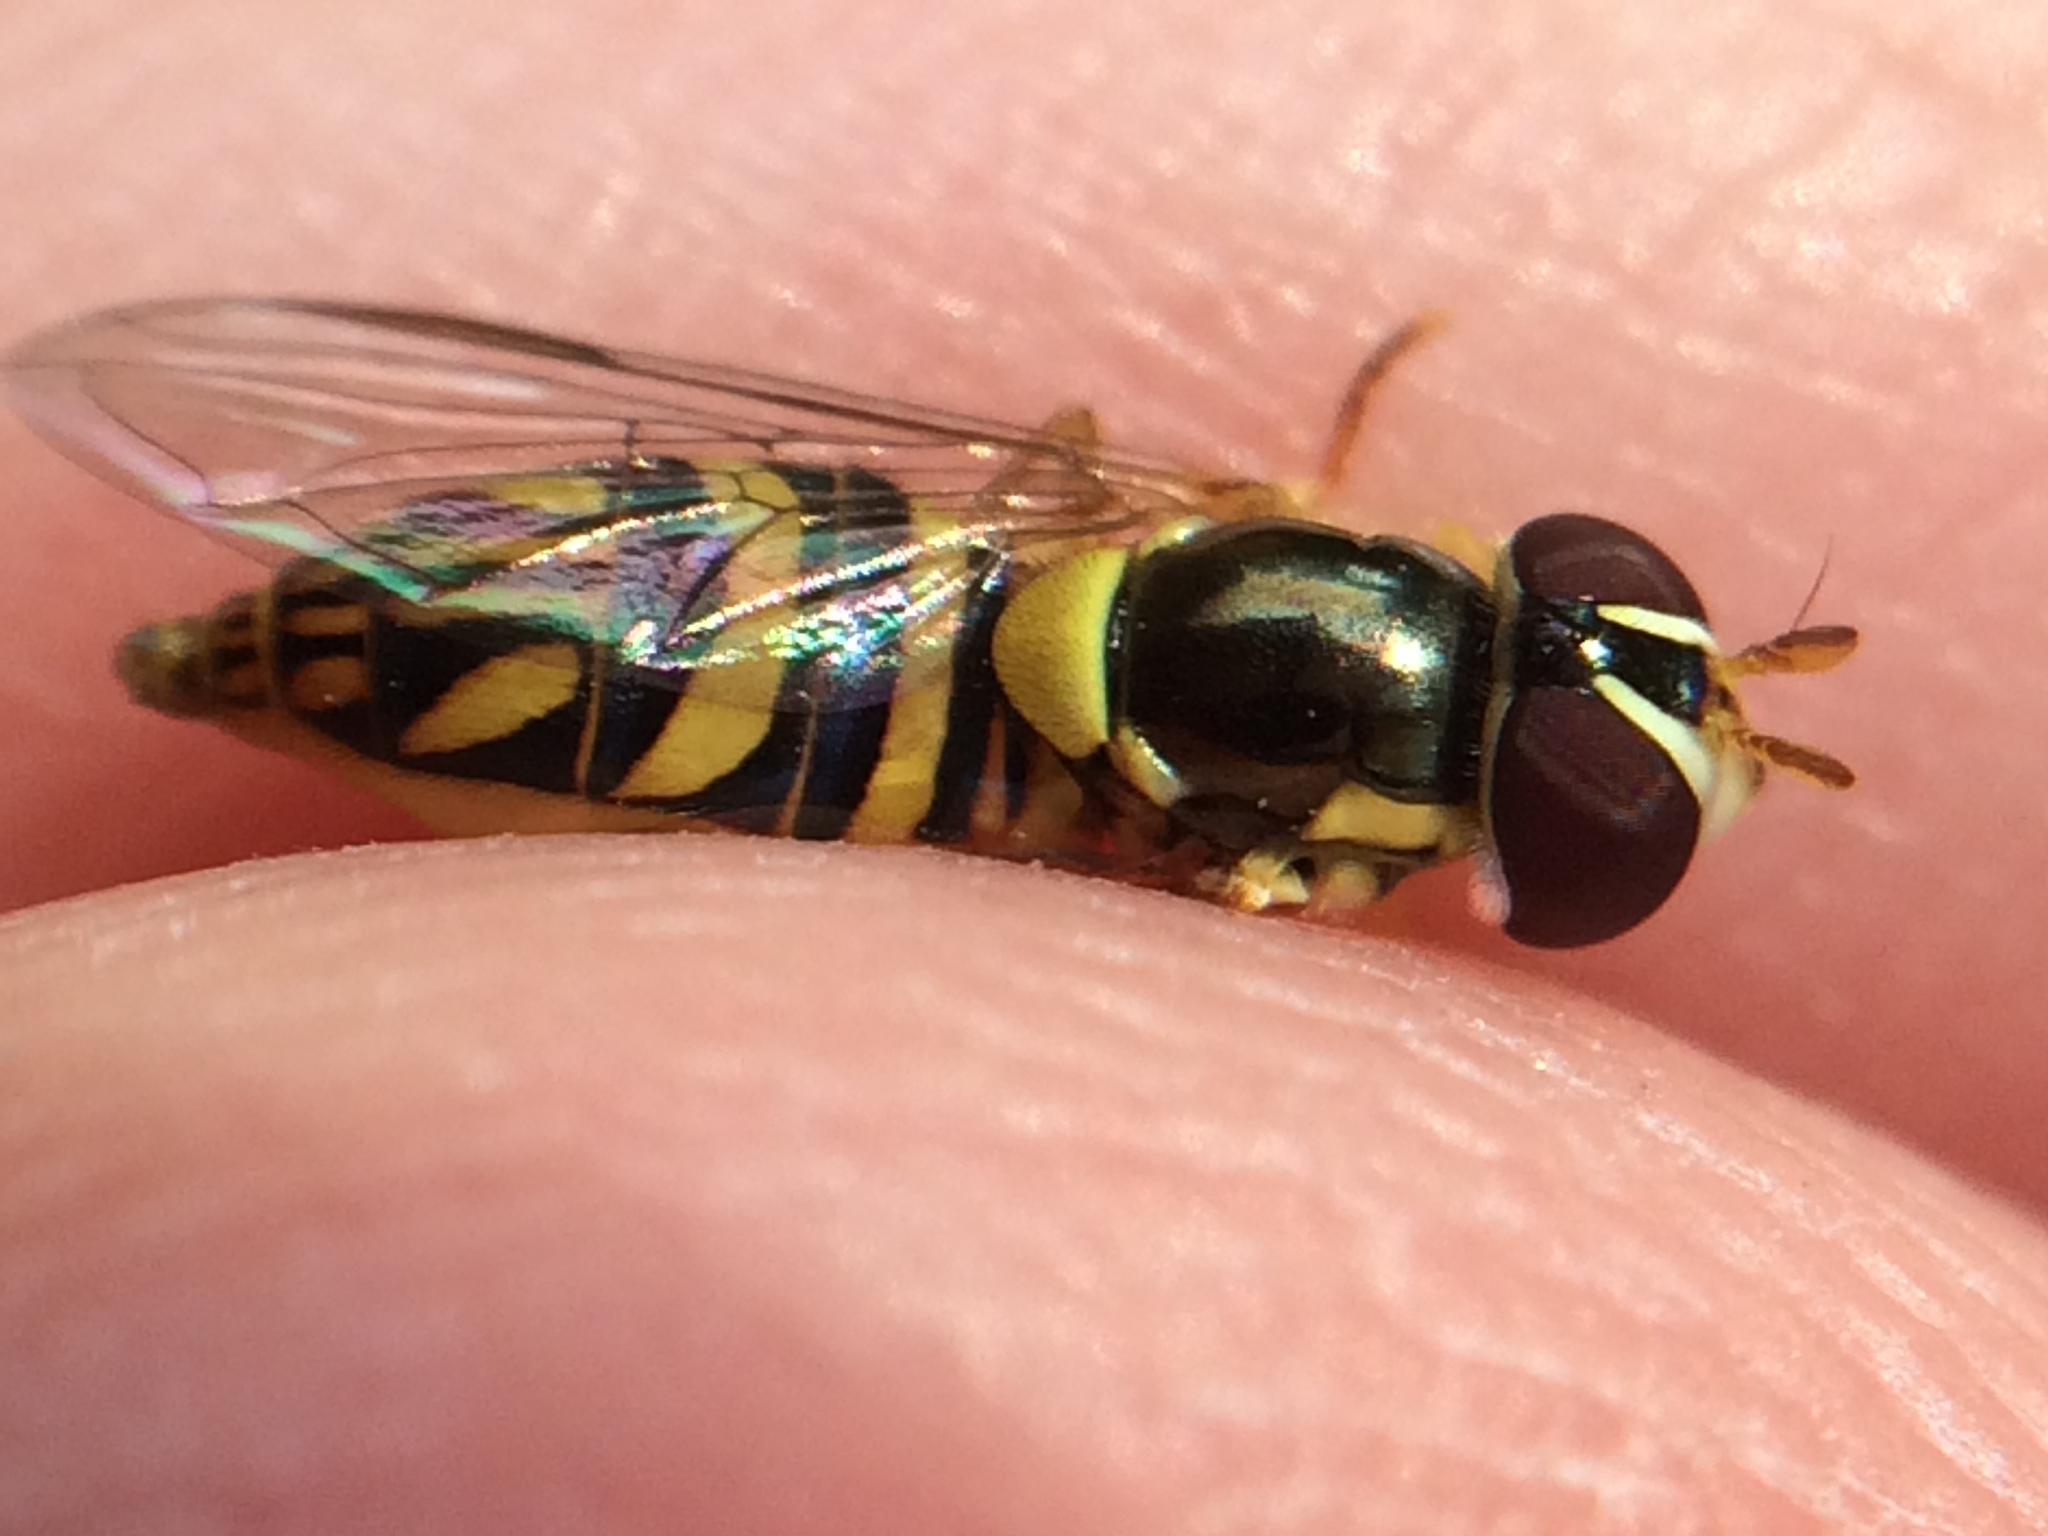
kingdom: Animalia
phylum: Arthropoda
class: Insecta
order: Diptera
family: Syrphidae
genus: Allograpta
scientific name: Allograpta obliqua
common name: Common oblique syrphid
